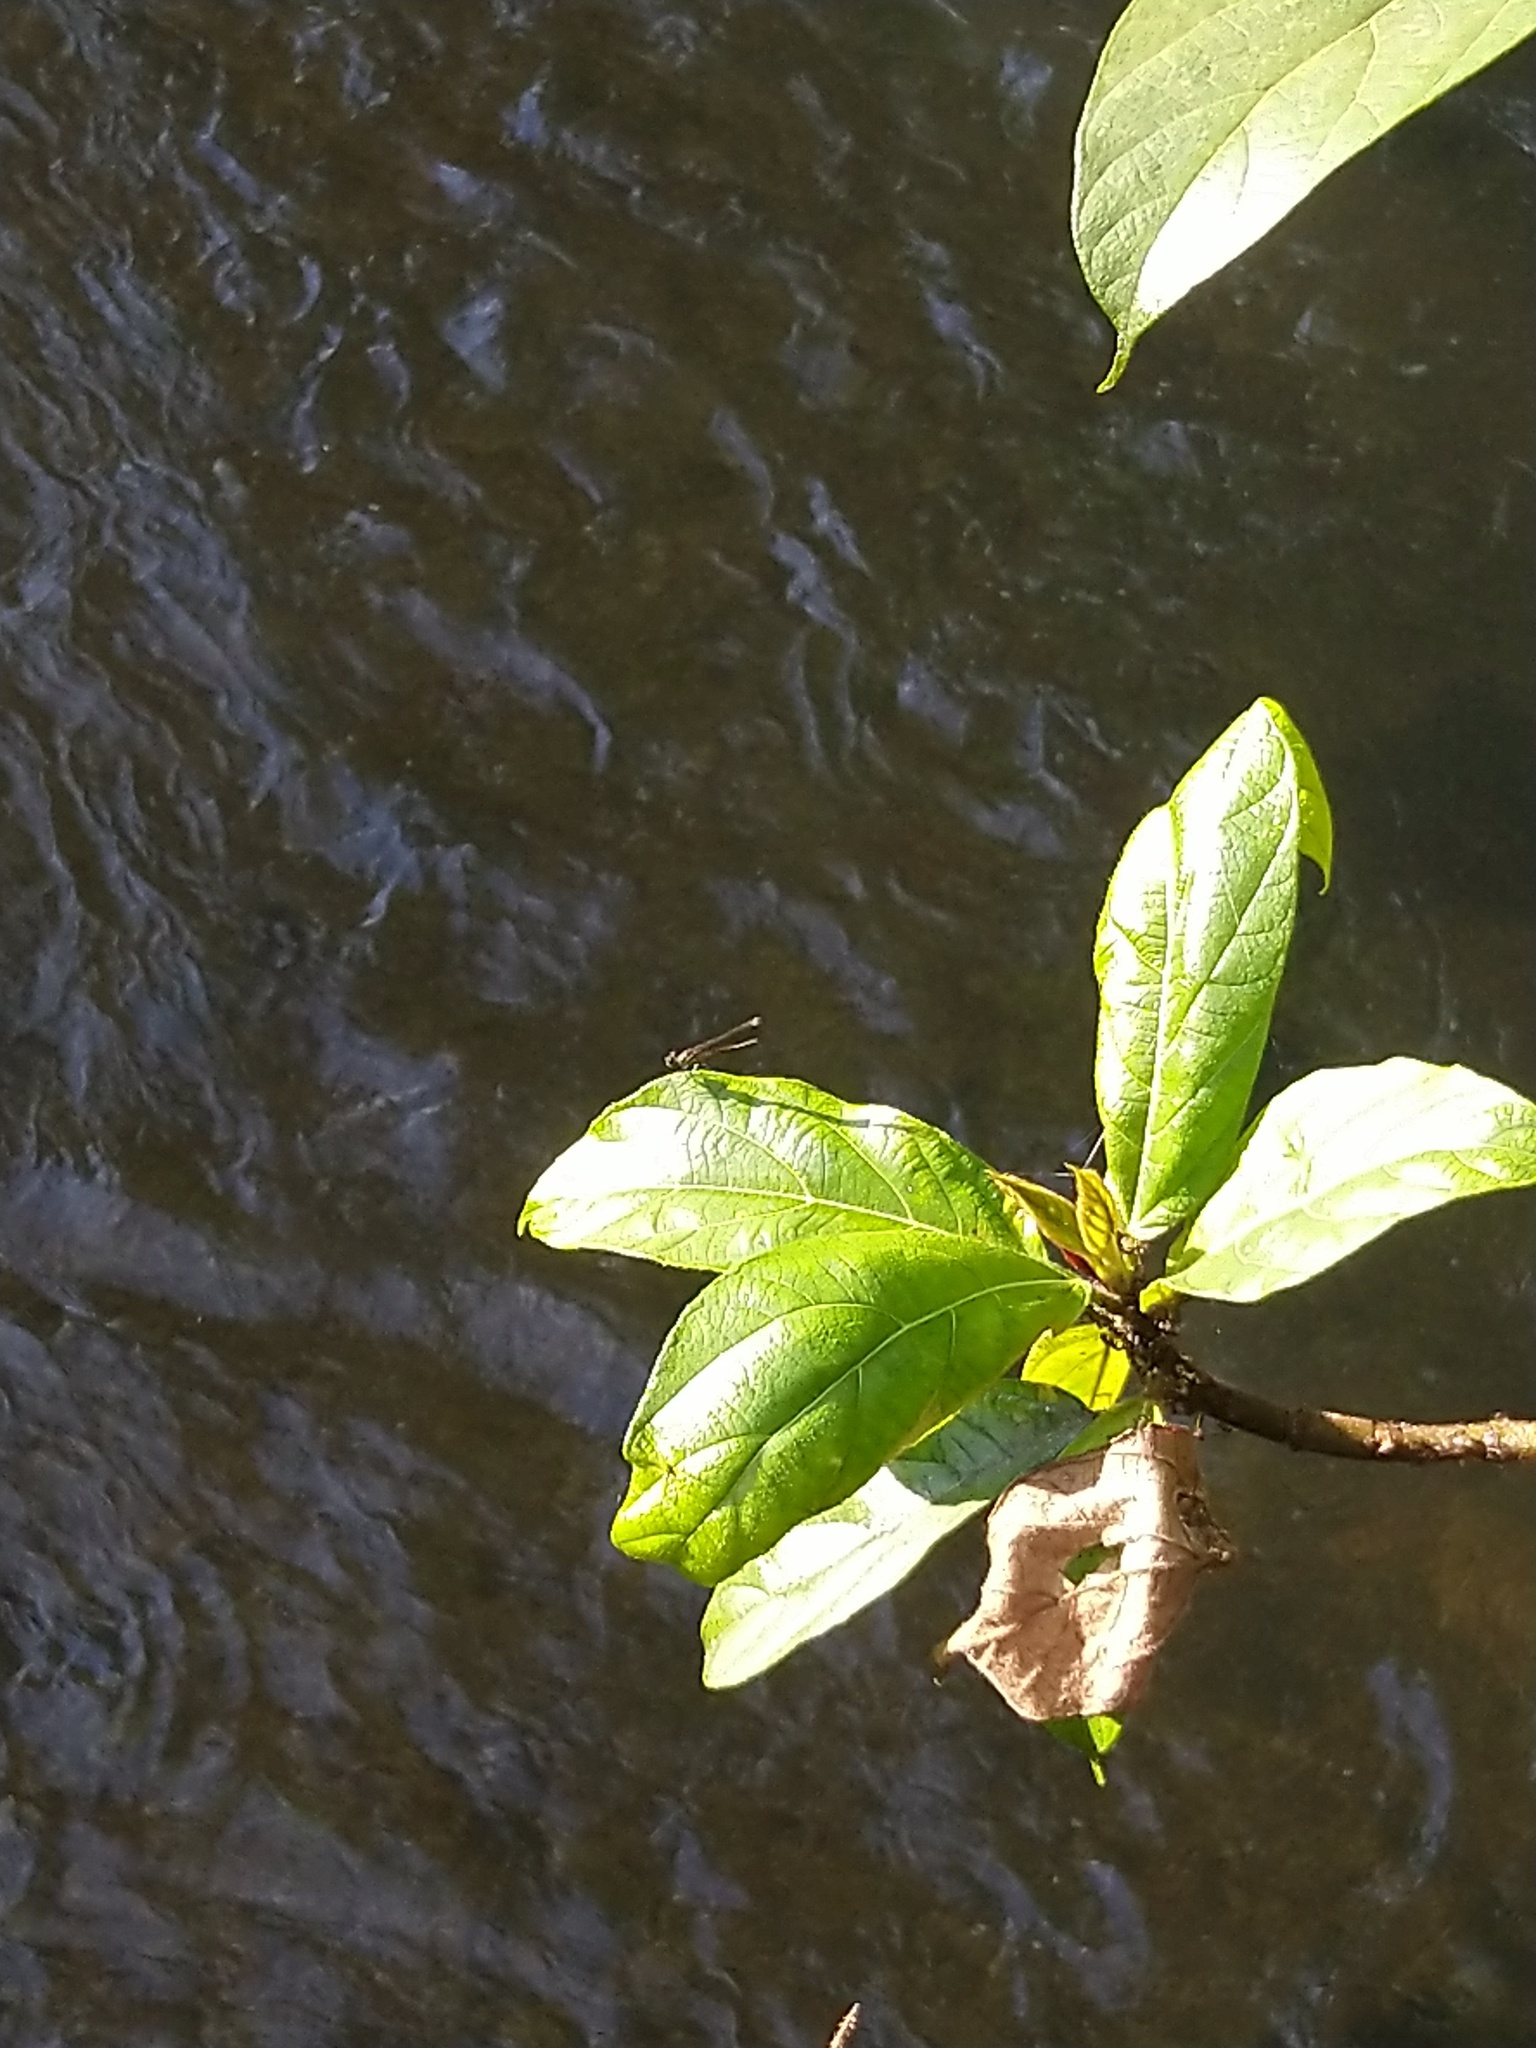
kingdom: Animalia
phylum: Arthropoda
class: Insecta
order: Odonata
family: Chlorocyphidae
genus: Libellago
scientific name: Libellago indica
